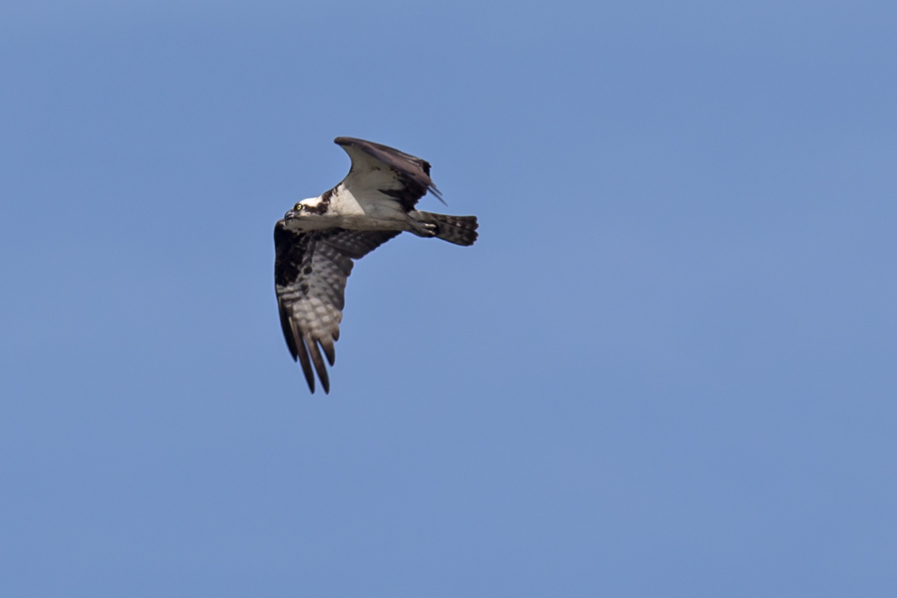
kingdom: Animalia
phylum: Chordata
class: Aves
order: Accipitriformes
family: Pandionidae
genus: Pandion
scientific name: Pandion haliaetus
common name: Osprey
